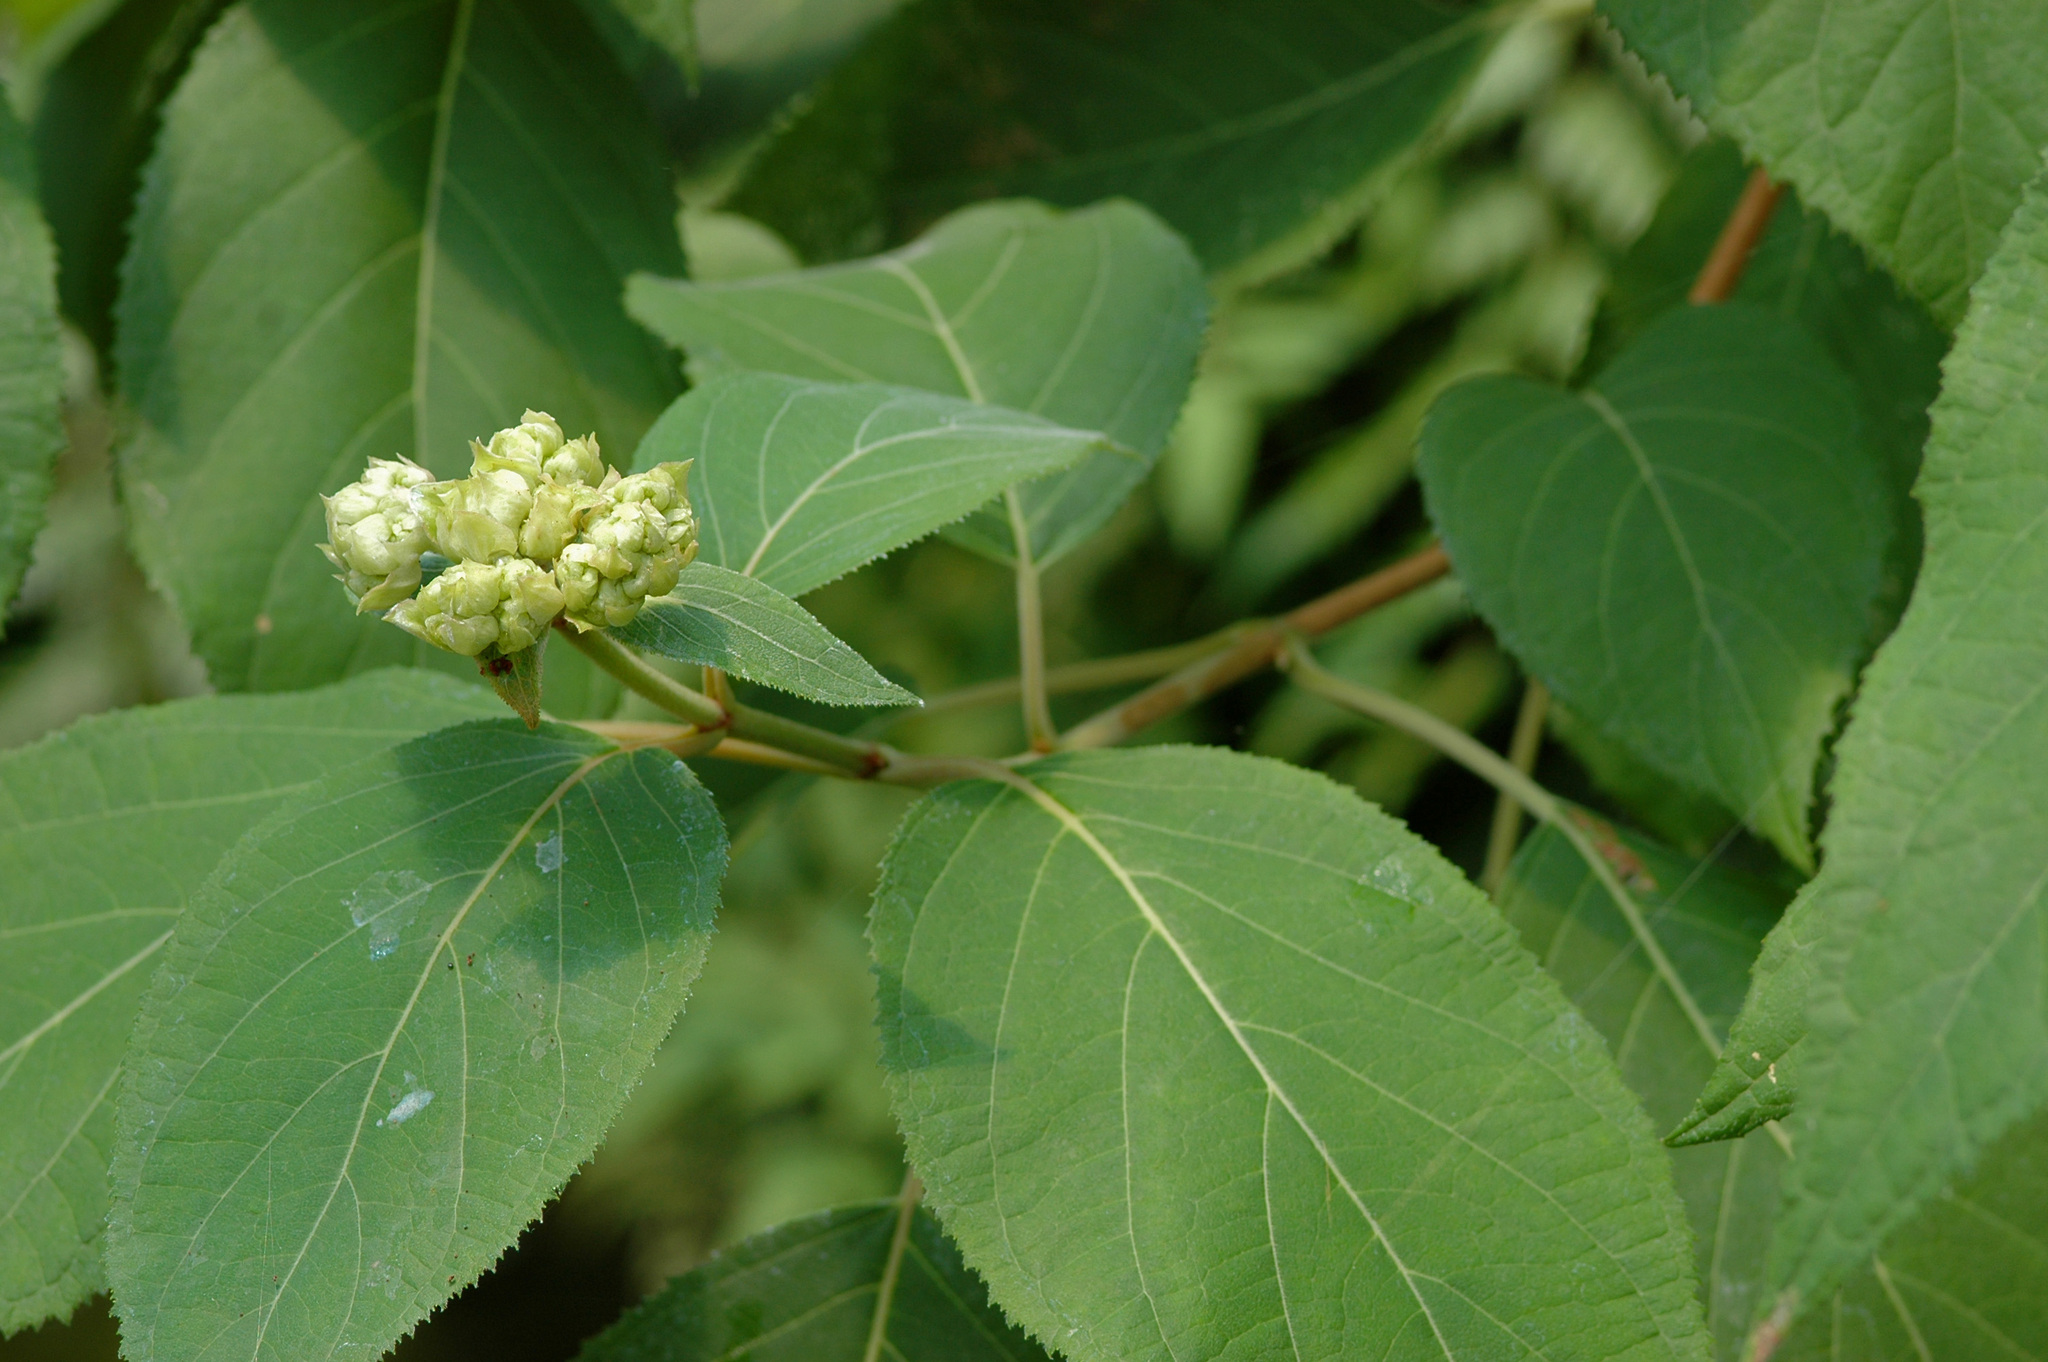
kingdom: Plantae
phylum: Tracheophyta
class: Magnoliopsida
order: Cornales
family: Hydrangeaceae
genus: Hydrangea
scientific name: Hydrangea aspera
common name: Rough-leaf hydrangea
